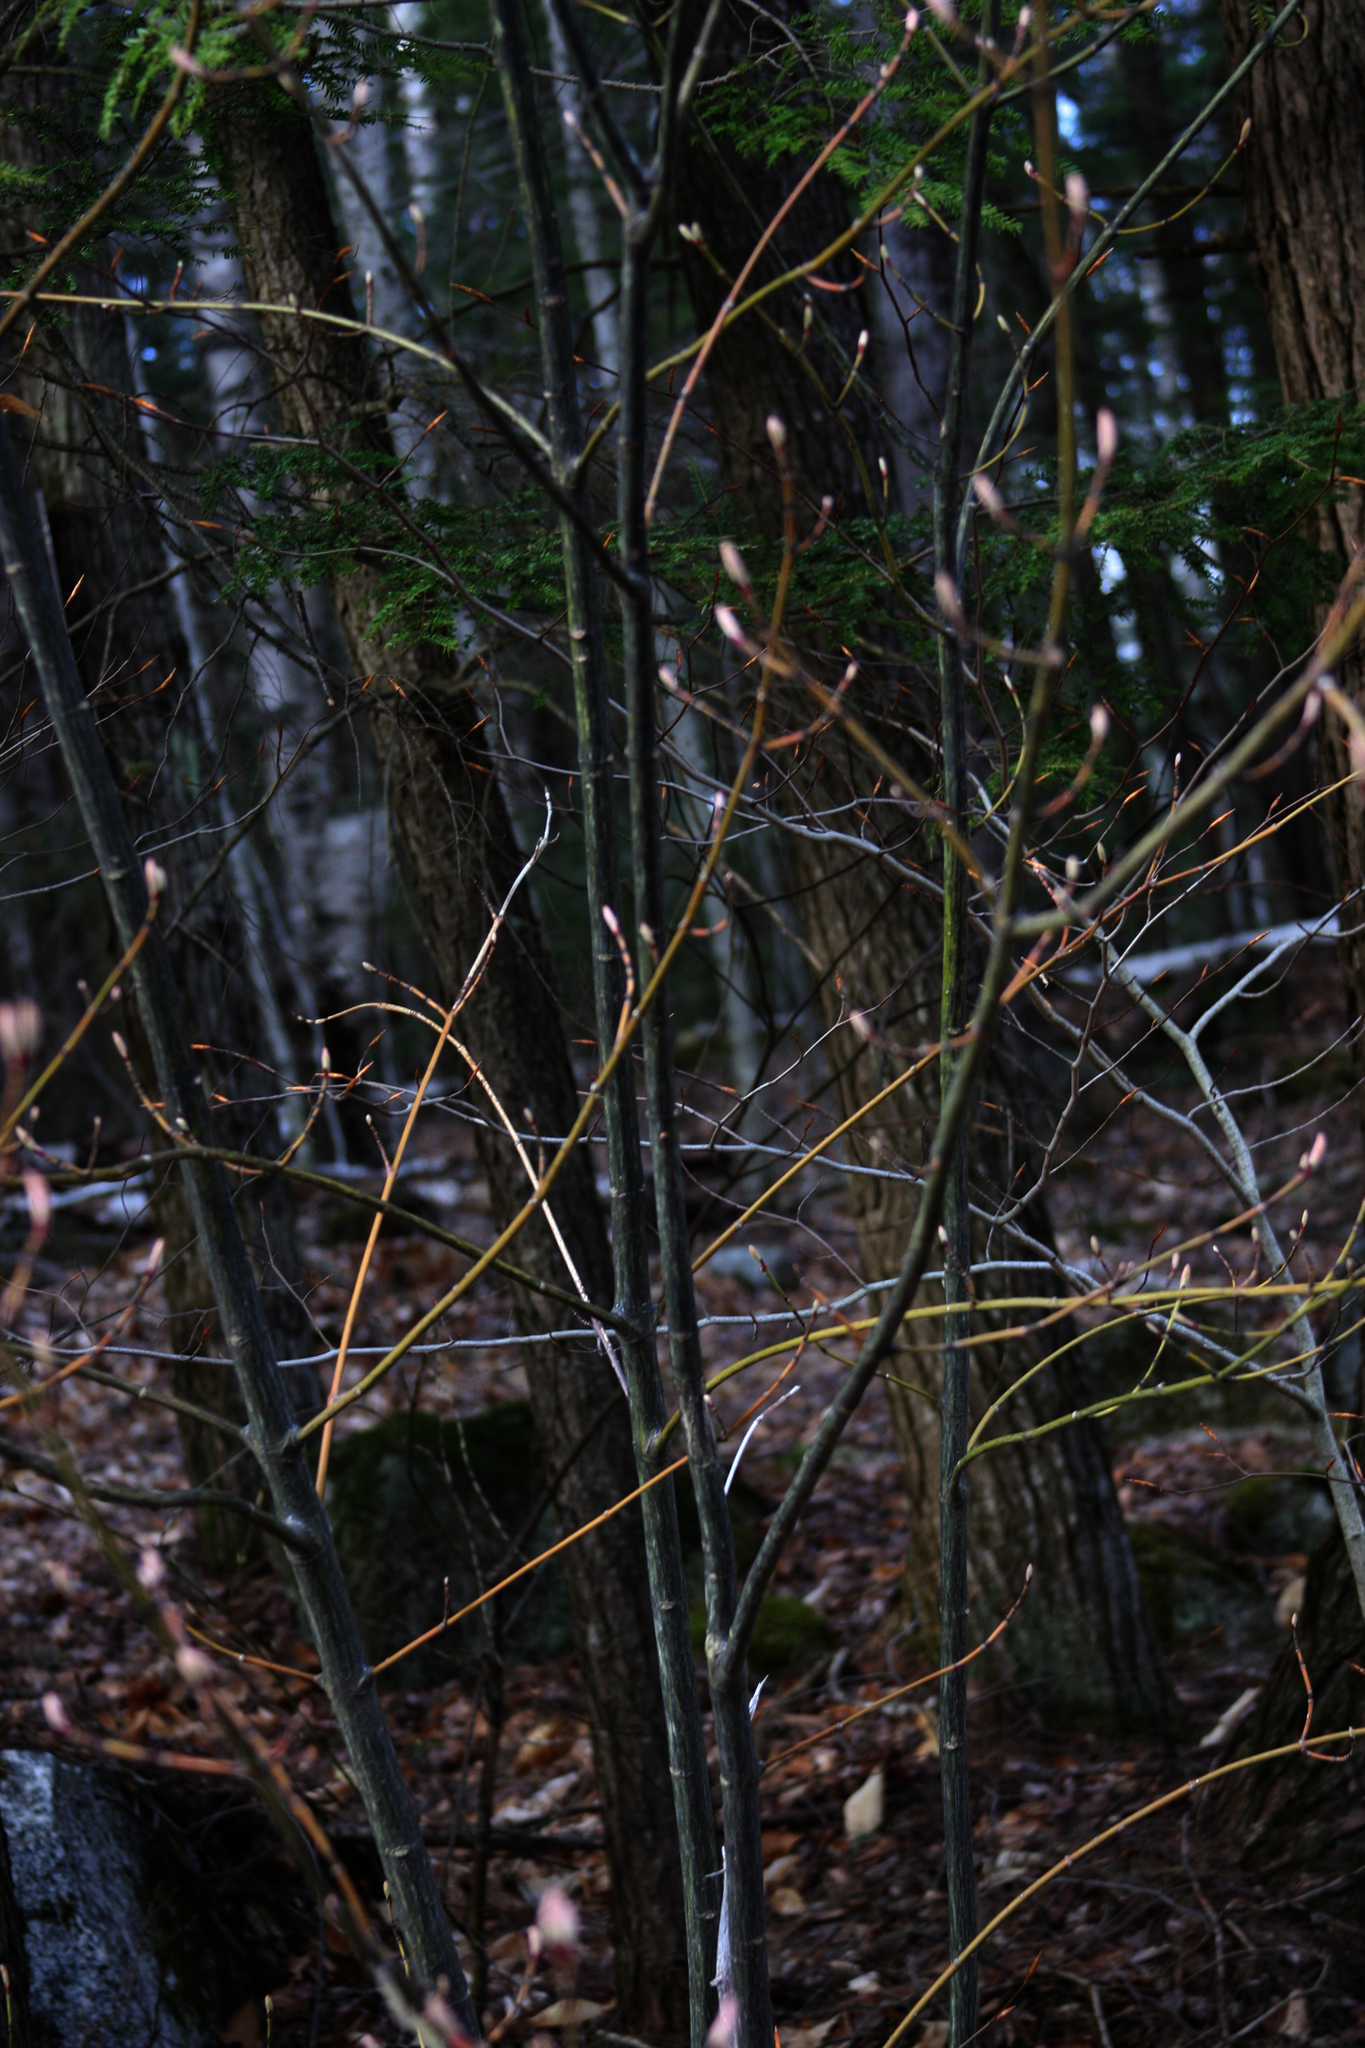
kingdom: Plantae
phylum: Tracheophyta
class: Magnoliopsida
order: Sapindales
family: Sapindaceae
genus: Acer
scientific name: Acer pensylvanicum
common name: Moosewood
